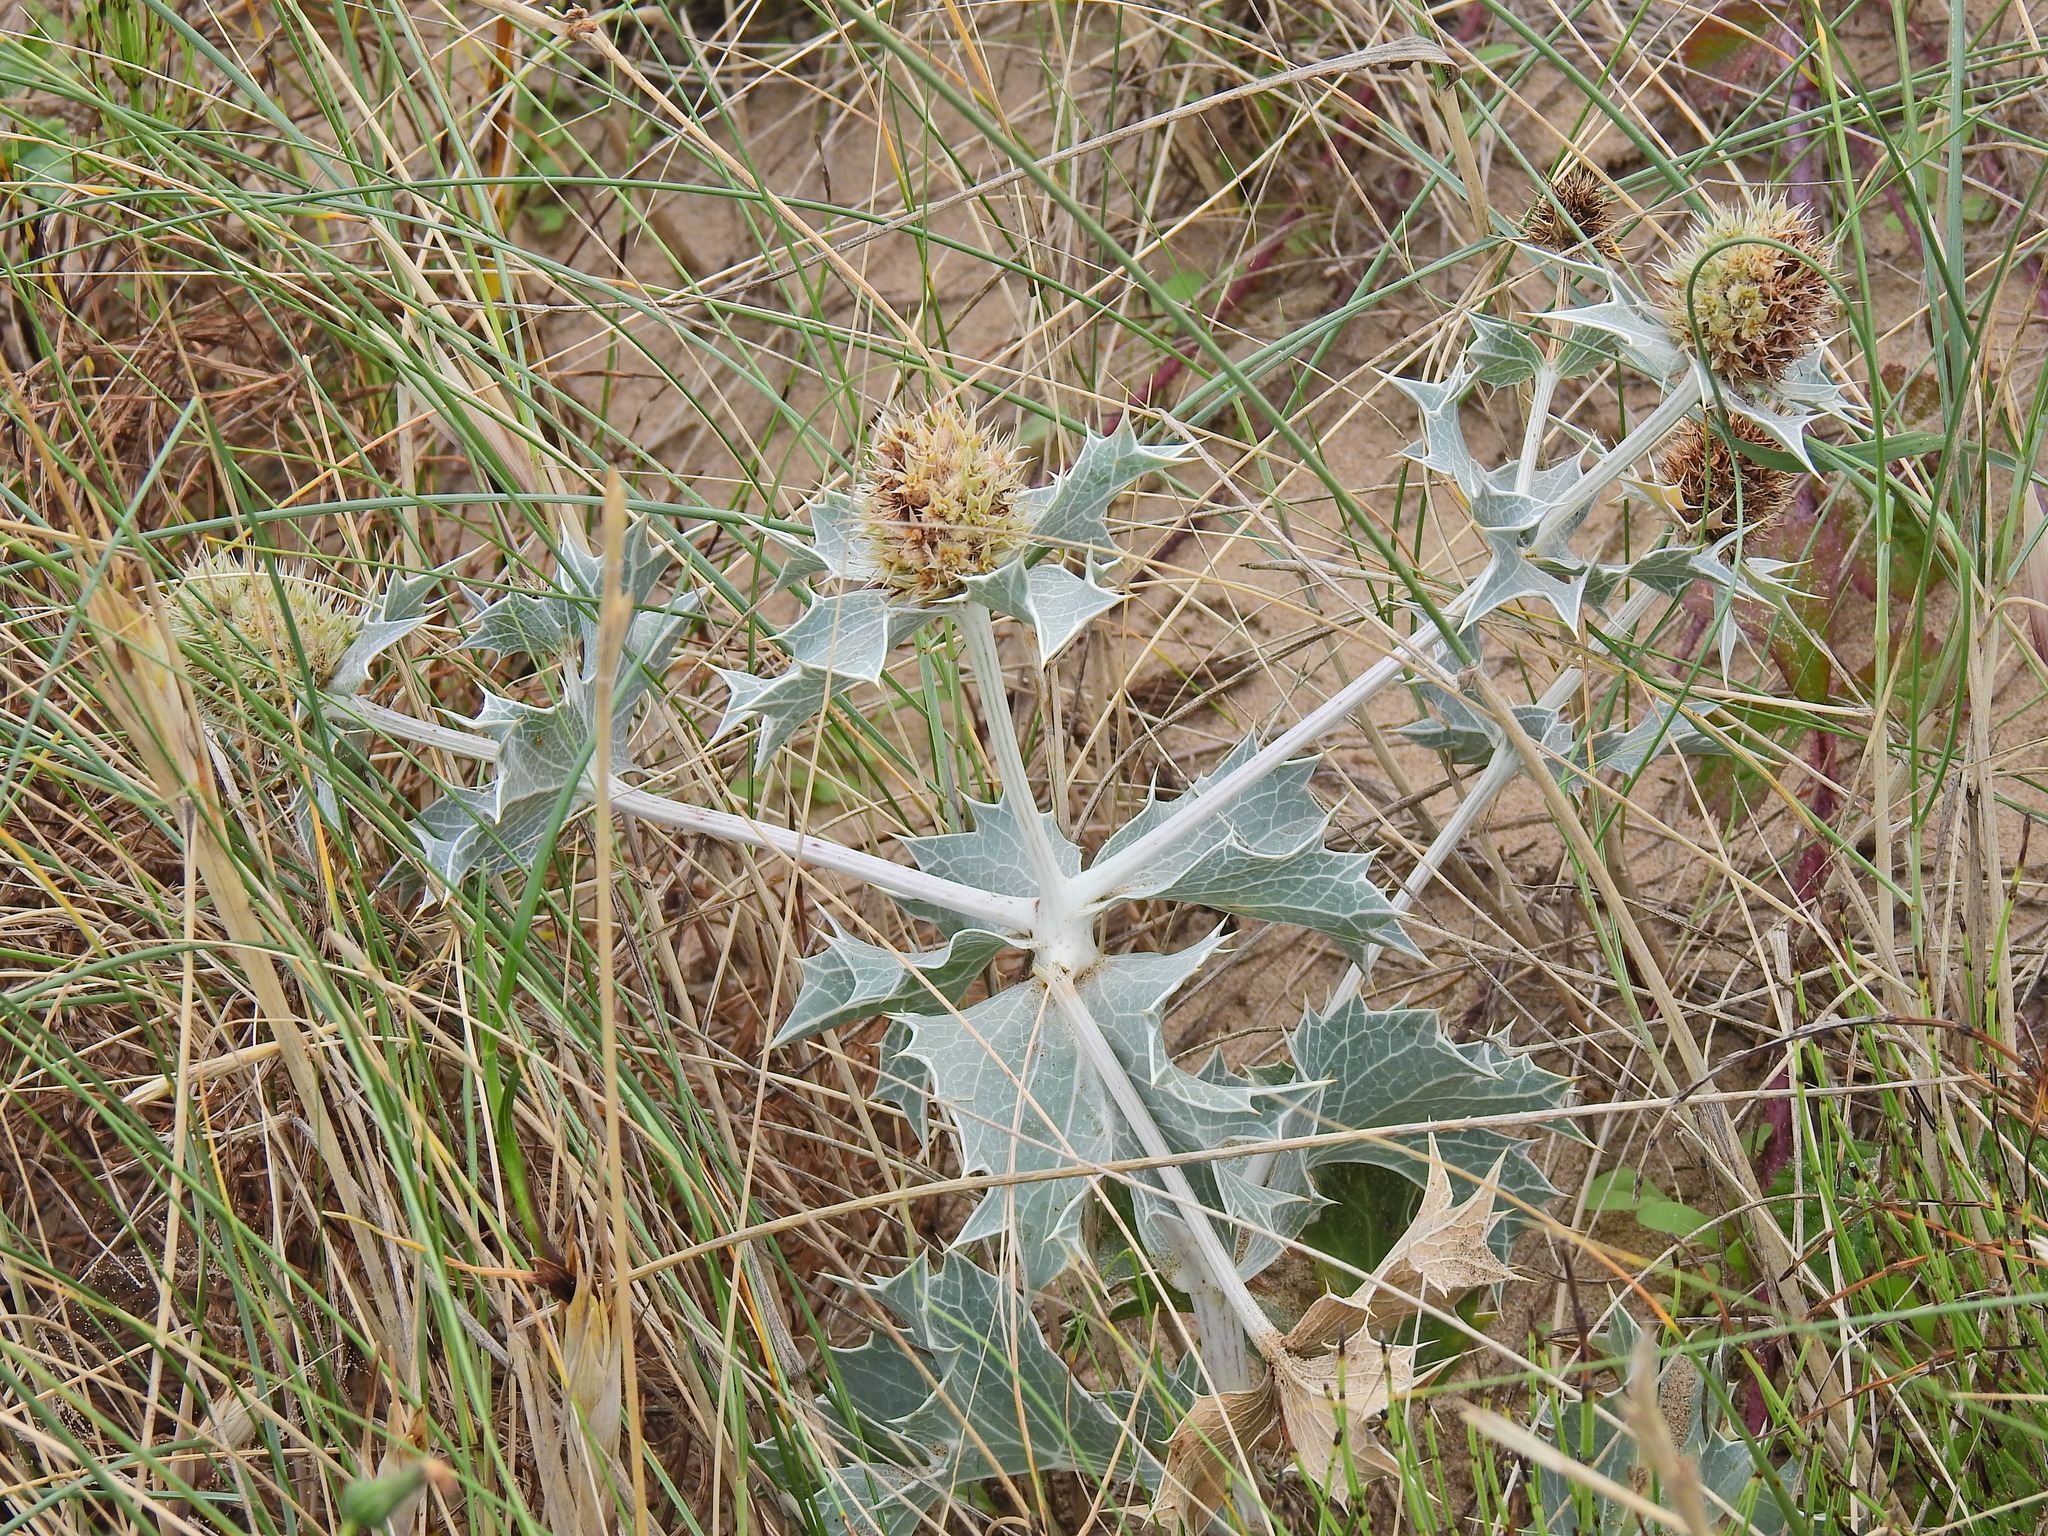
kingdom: Plantae
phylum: Tracheophyta
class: Magnoliopsida
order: Apiales
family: Apiaceae
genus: Eryngium
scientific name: Eryngium maritimum
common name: Sea-holly
